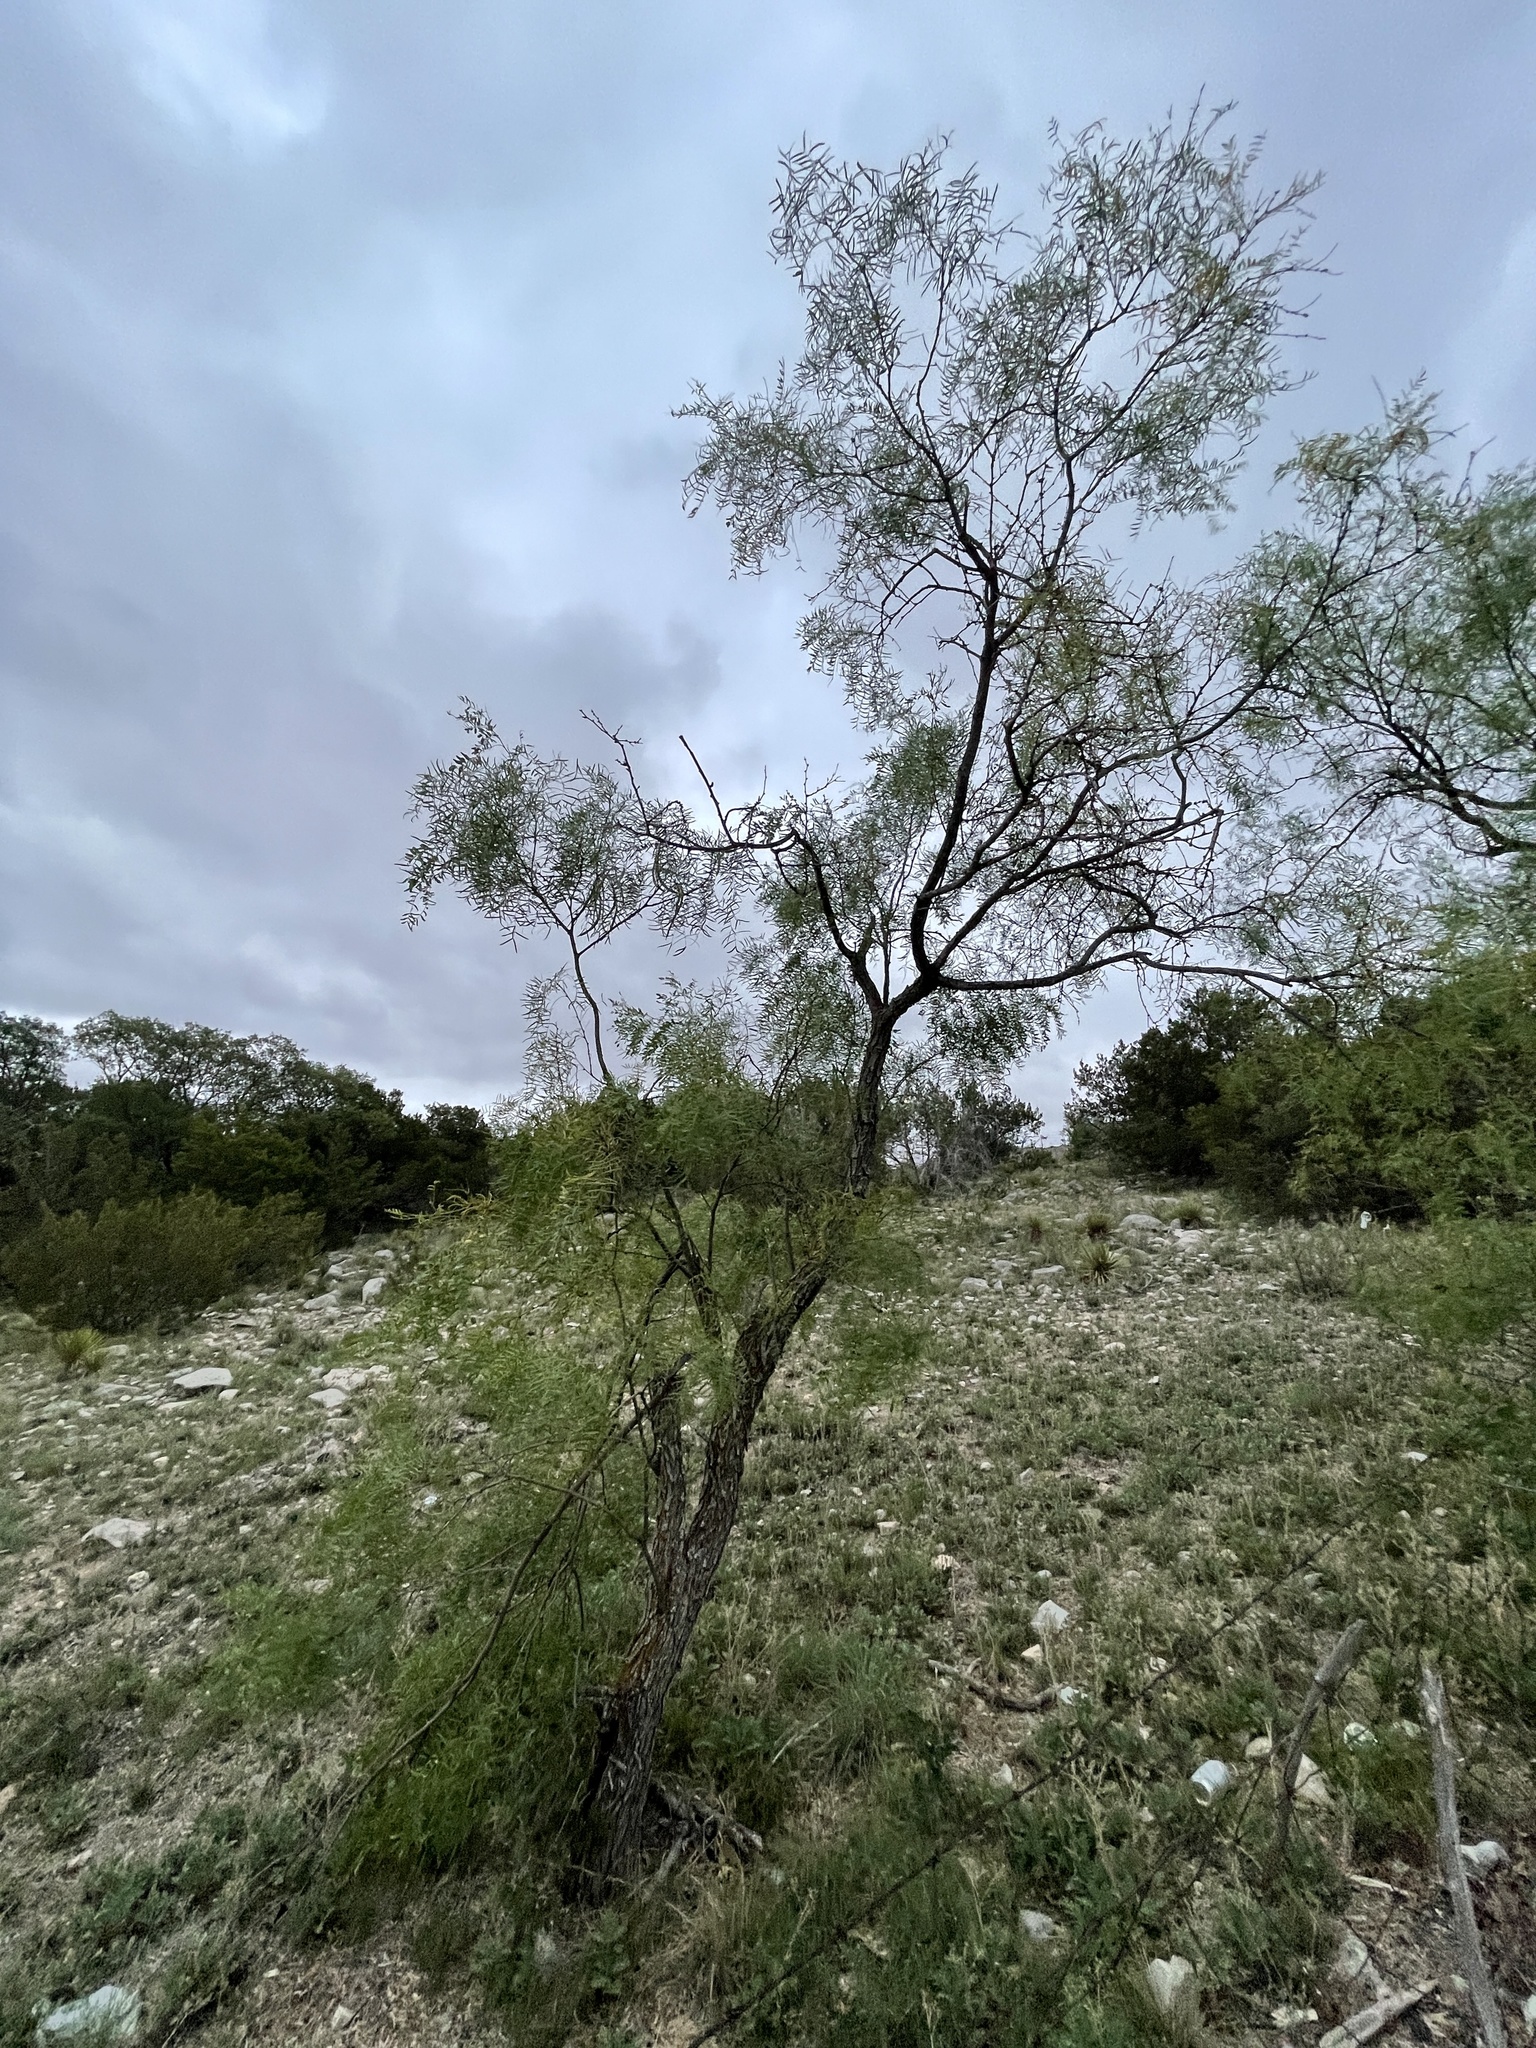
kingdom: Plantae
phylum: Tracheophyta
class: Magnoliopsida
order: Fabales
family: Fabaceae
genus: Prosopis
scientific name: Prosopis glandulosa
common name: Honey mesquite
